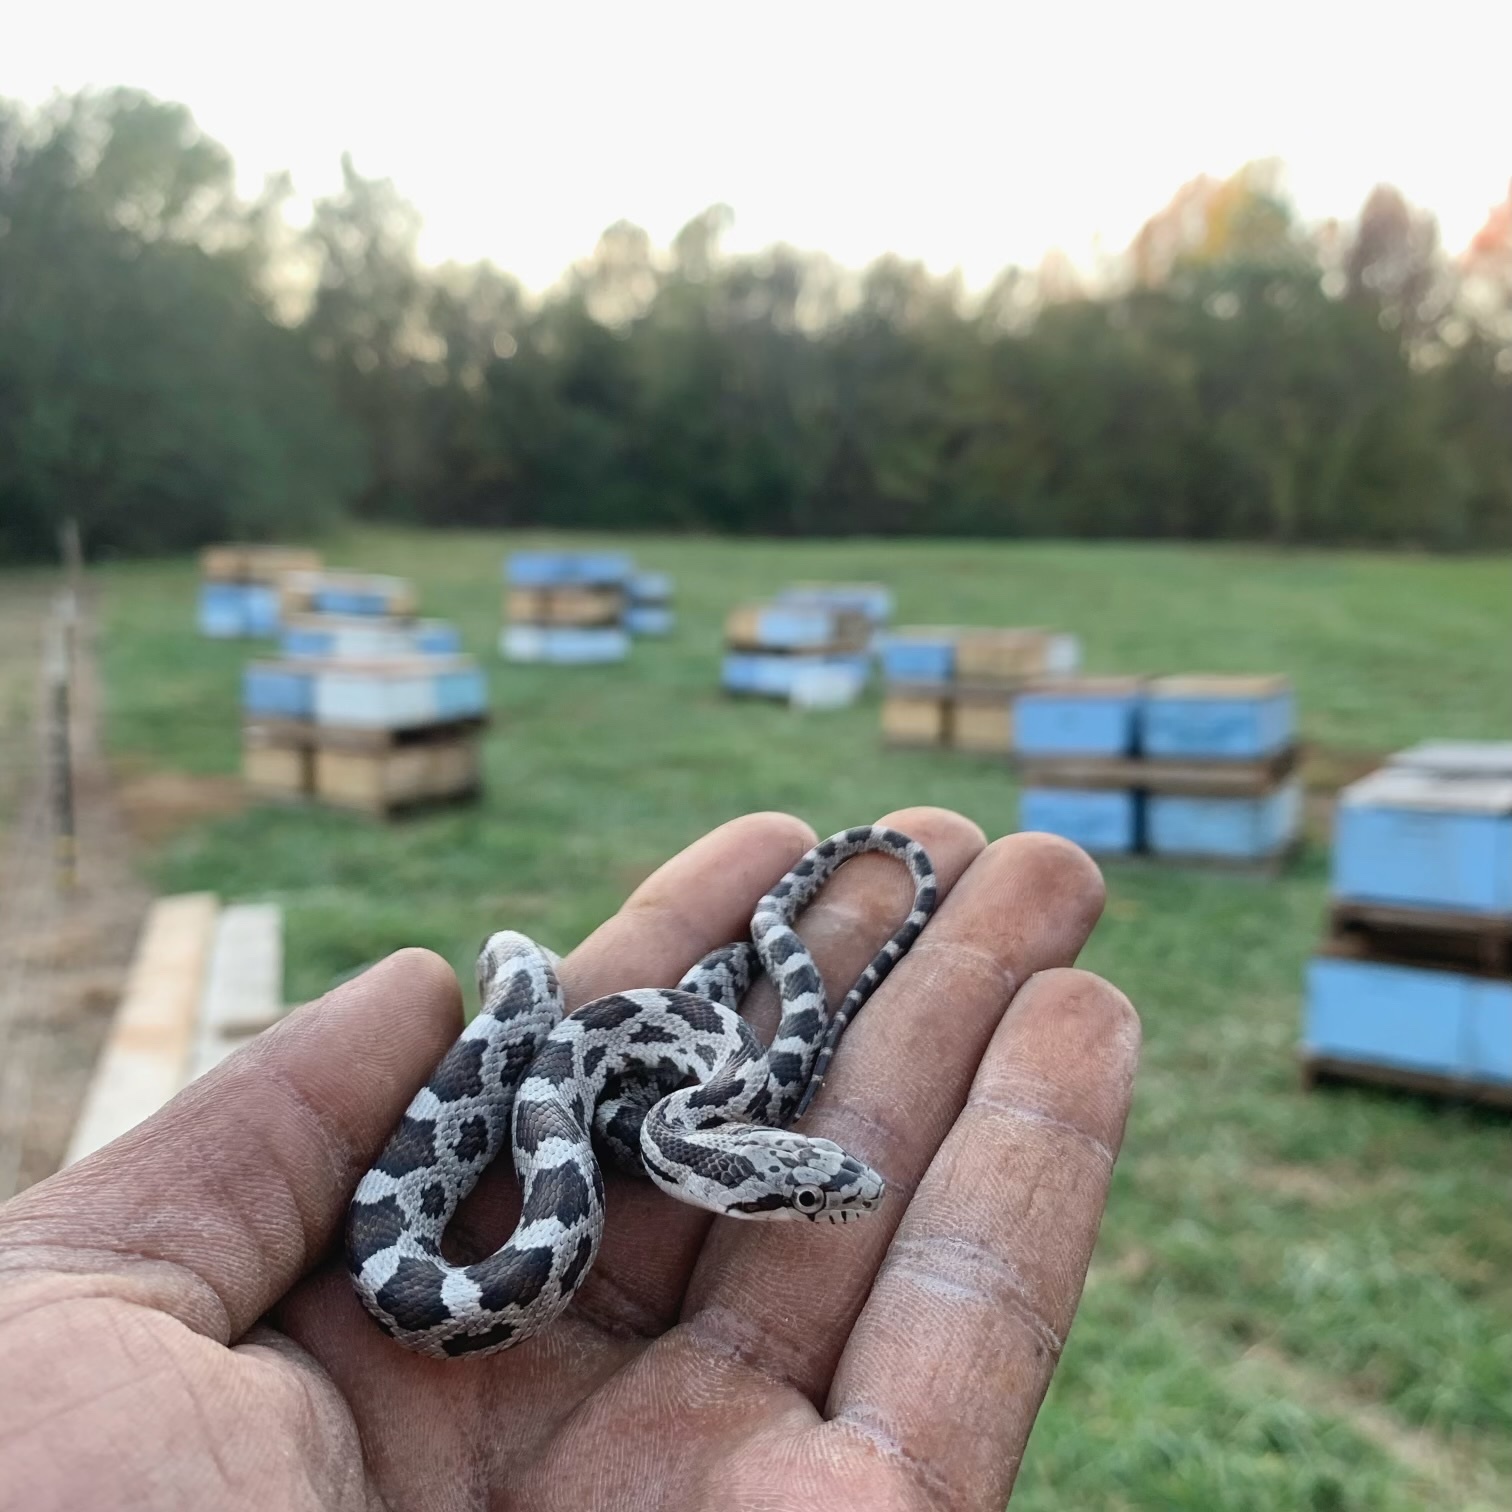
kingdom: Animalia
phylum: Chordata
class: Squamata
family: Colubridae
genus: Pantherophis
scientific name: Pantherophis
